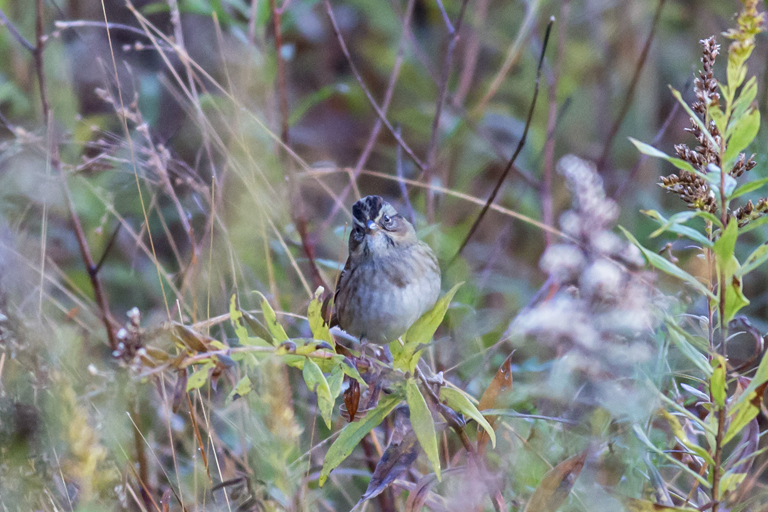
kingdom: Animalia
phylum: Chordata
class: Aves
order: Passeriformes
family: Passerellidae
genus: Melospiza
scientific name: Melospiza georgiana
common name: Swamp sparrow
